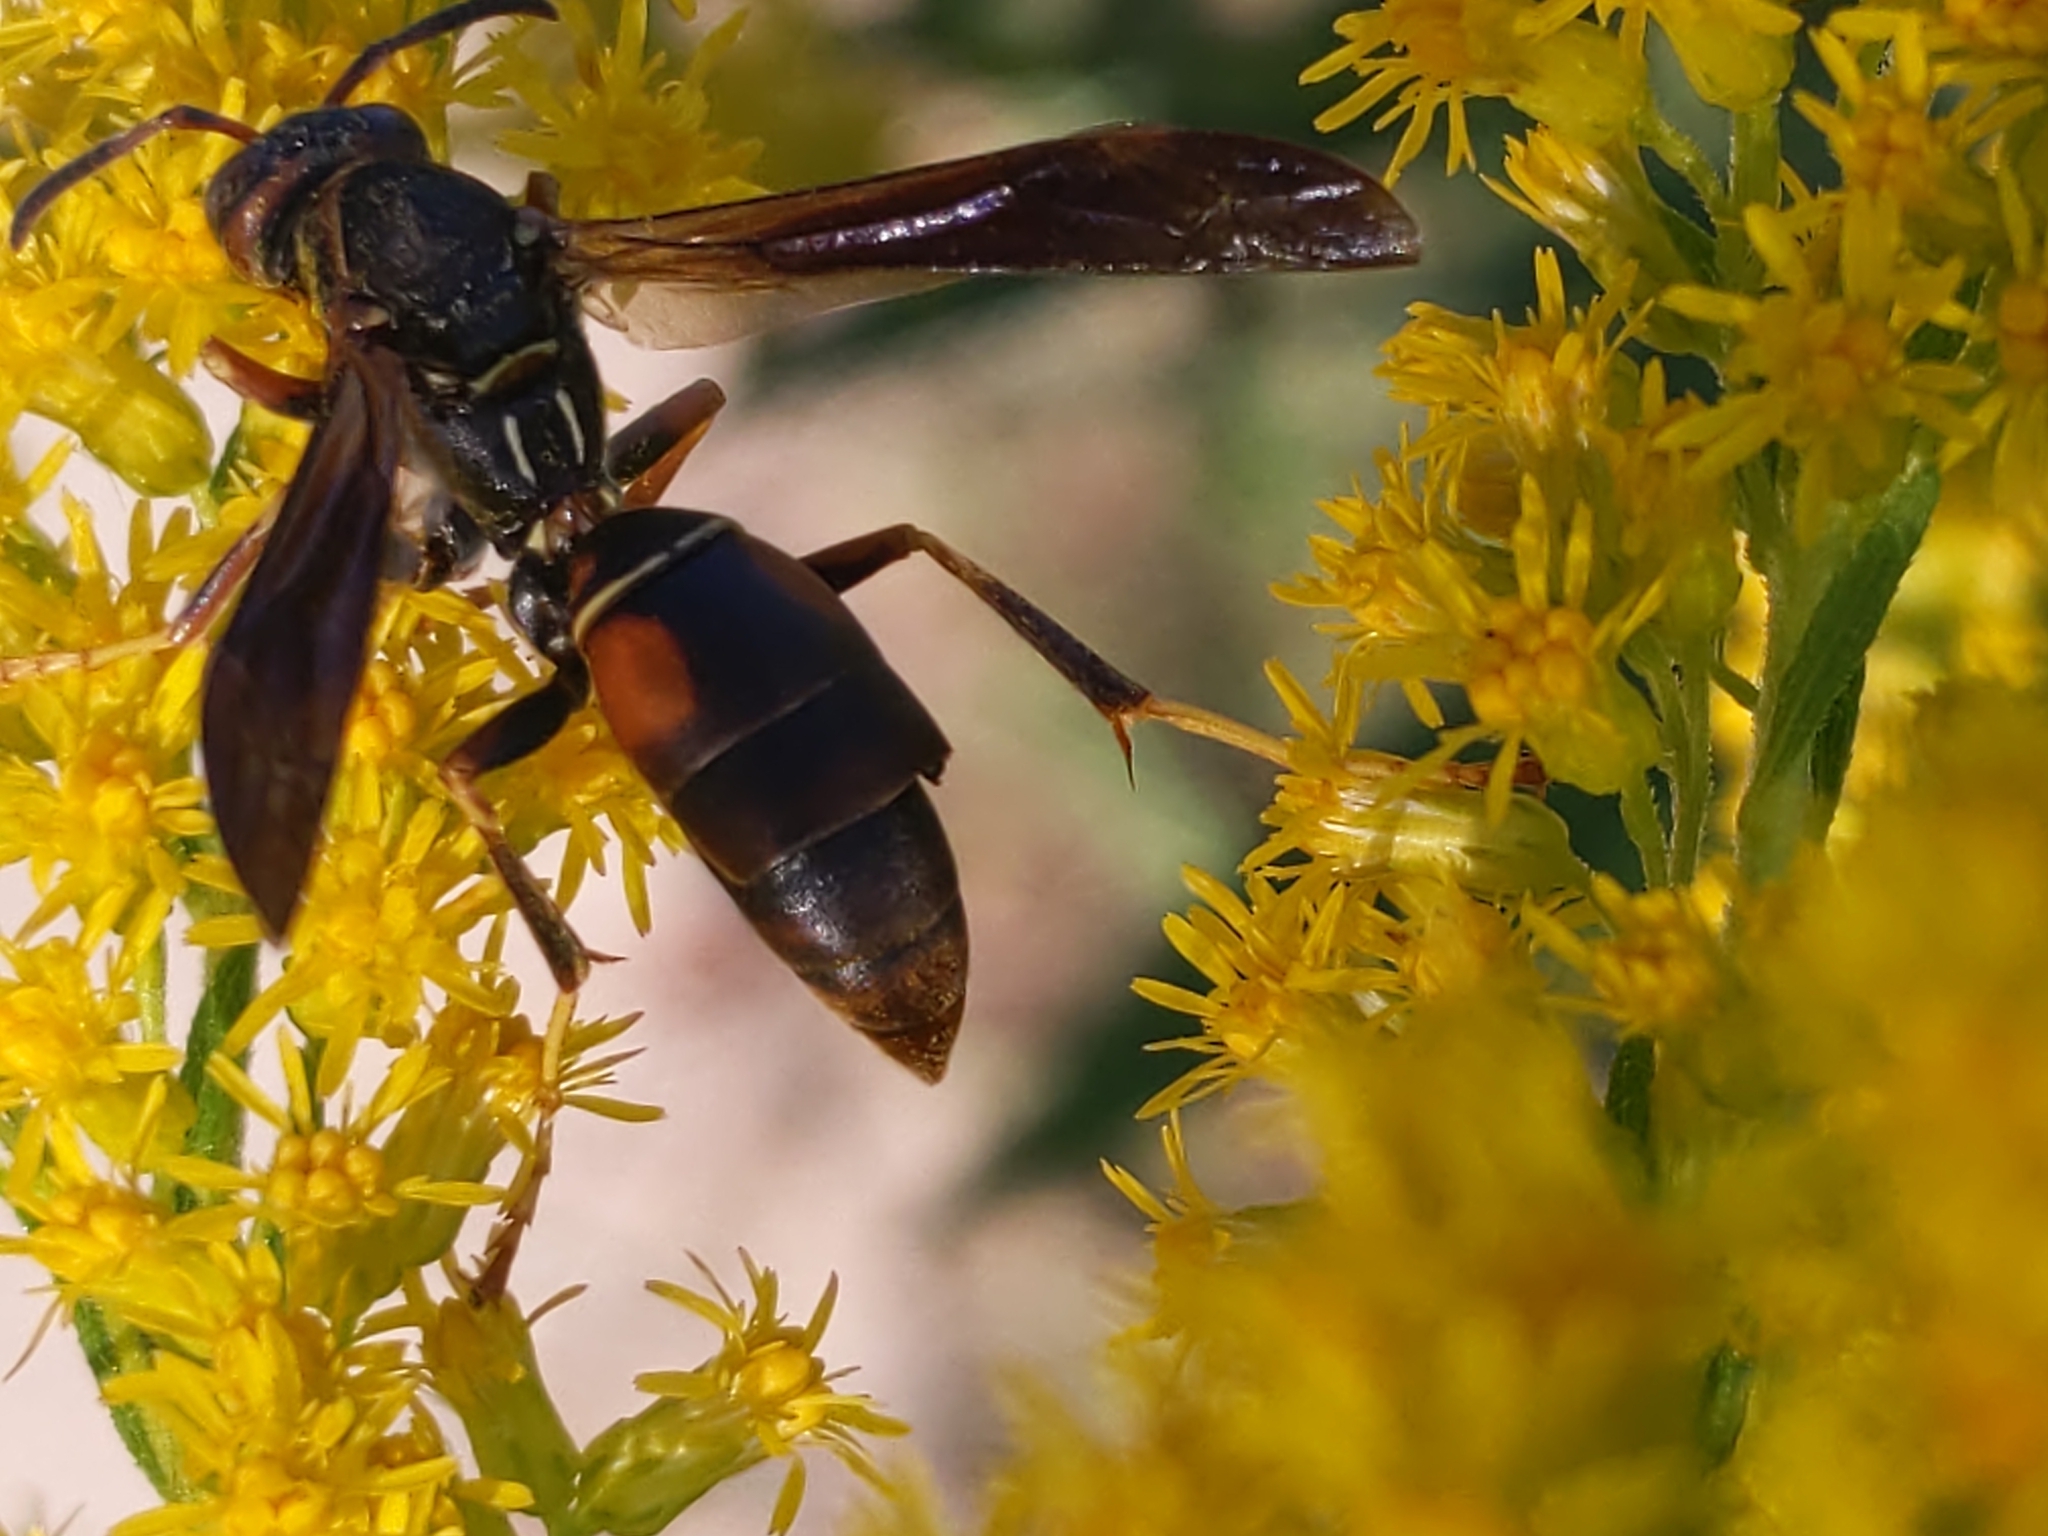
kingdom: Animalia
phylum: Arthropoda
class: Insecta
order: Hymenoptera
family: Eumenidae
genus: Polistes
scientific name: Polistes fuscatus
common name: Dark paper wasp
